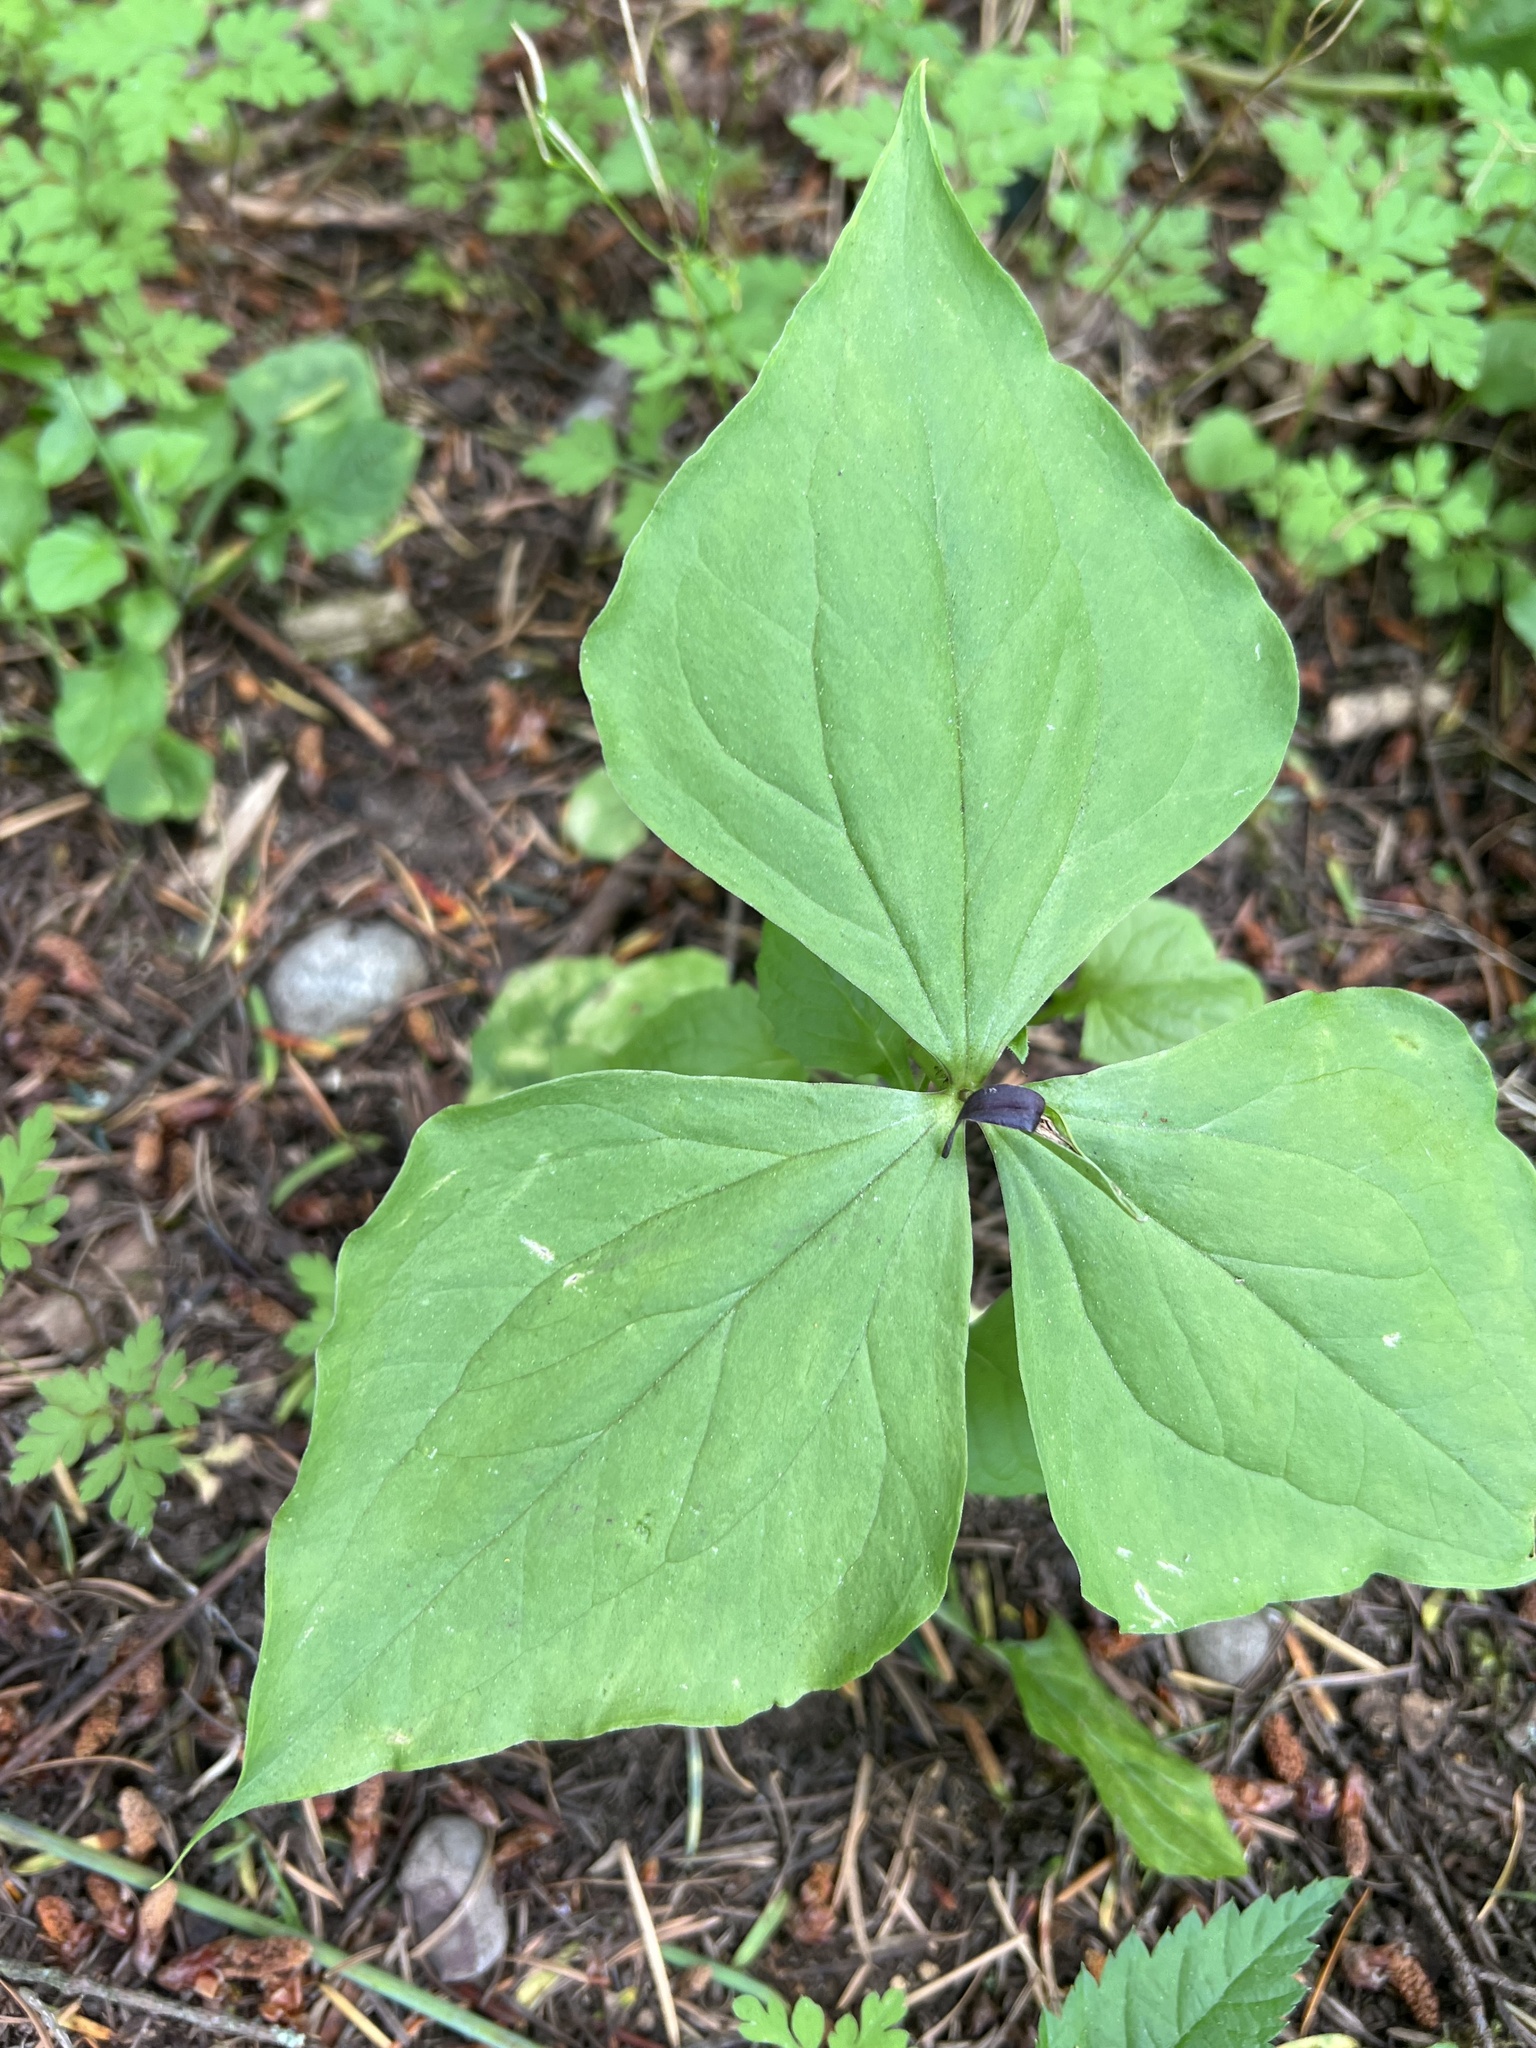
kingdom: Plantae
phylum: Tracheophyta
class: Liliopsida
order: Liliales
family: Melanthiaceae
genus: Trillium
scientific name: Trillium ovatum
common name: Pacific trillium
